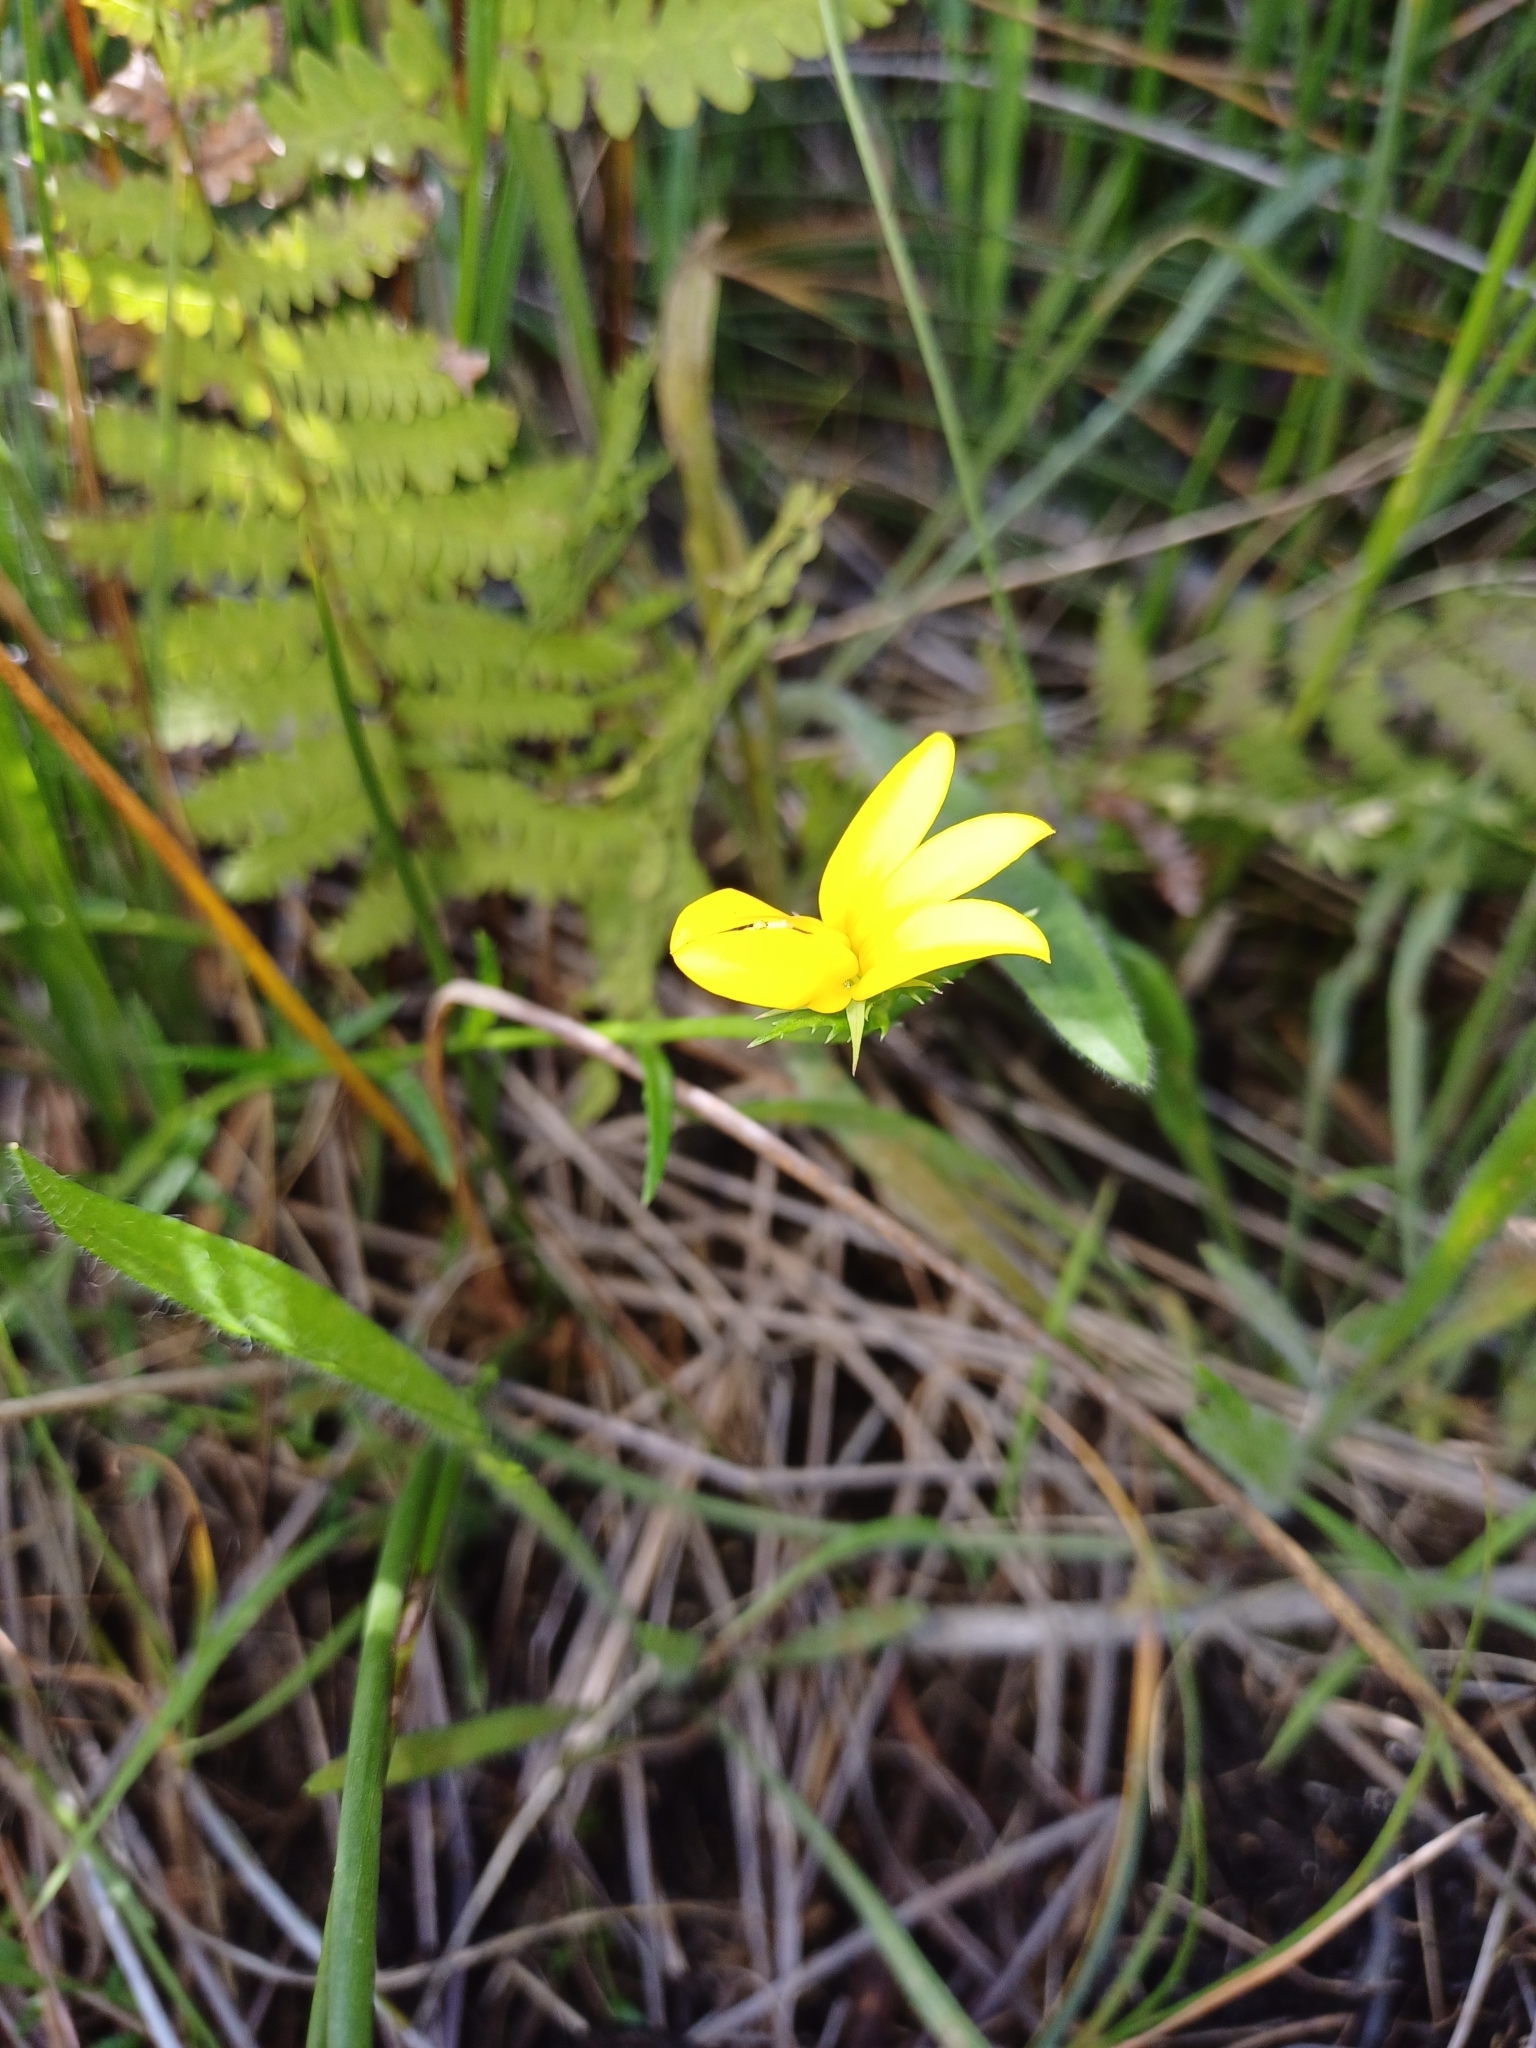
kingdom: Plantae
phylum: Tracheophyta
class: Magnoliopsida
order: Asterales
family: Campanulaceae
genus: Monopsis
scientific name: Monopsis lutea
